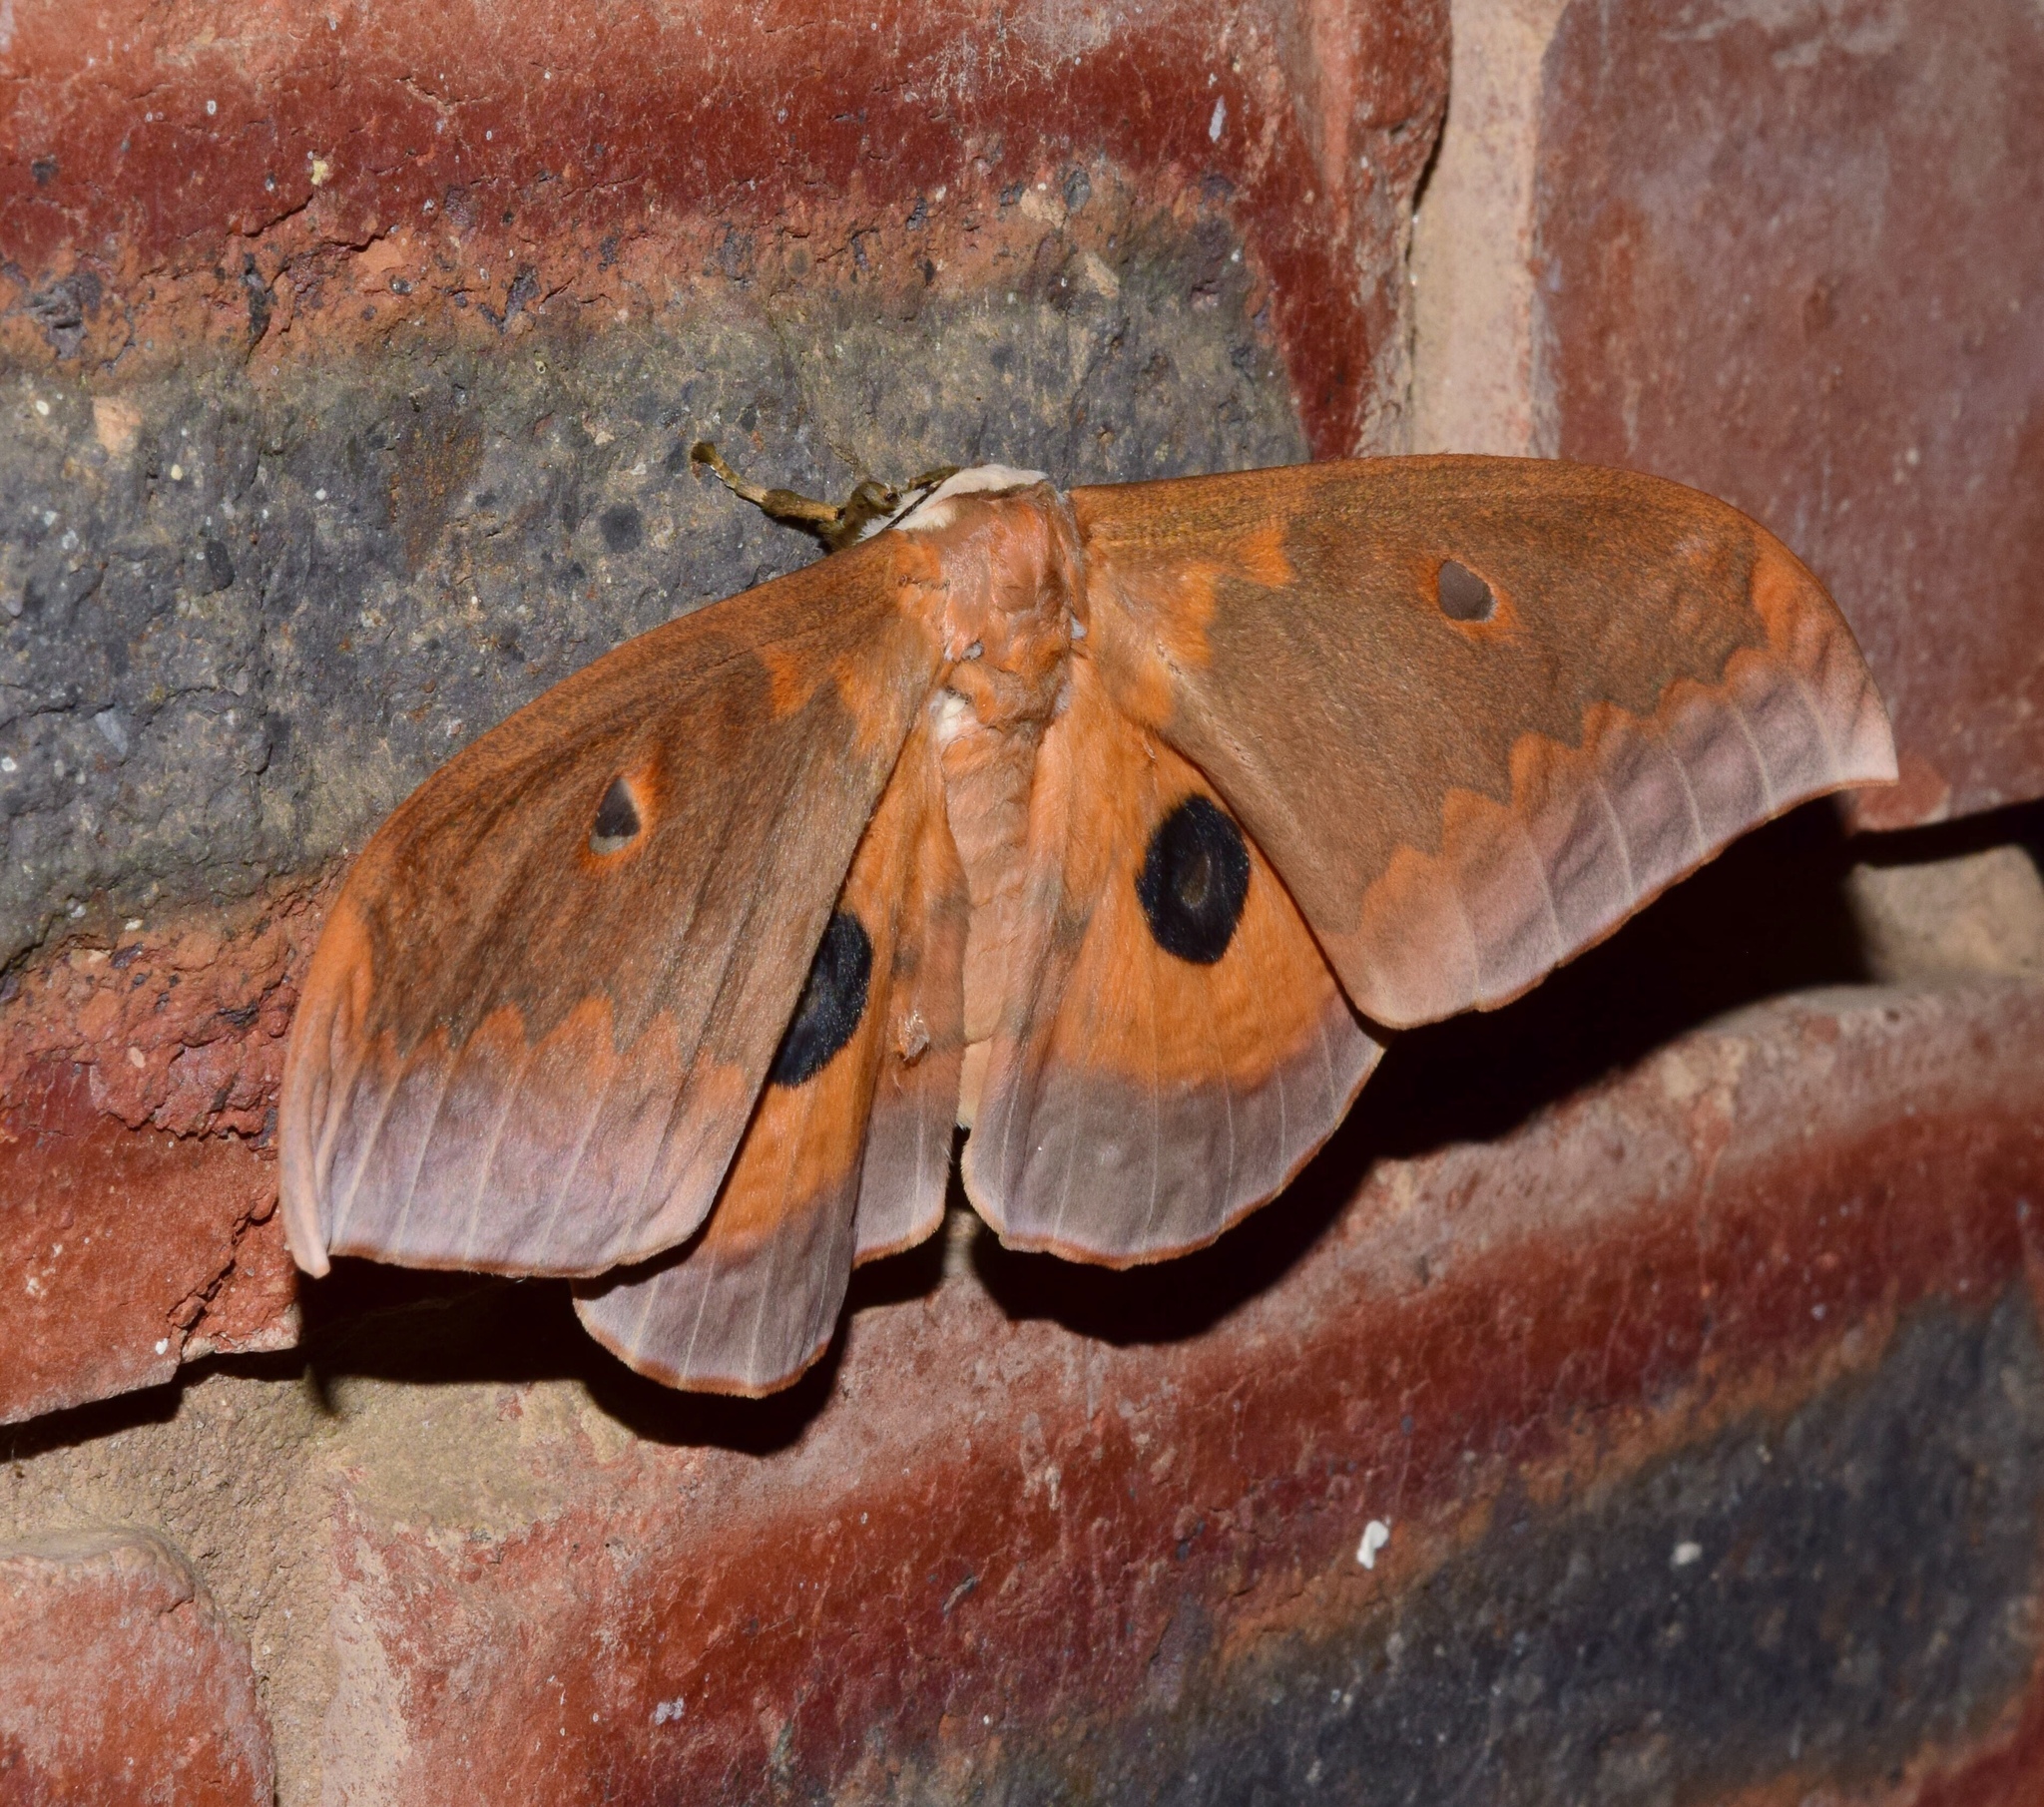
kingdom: Animalia
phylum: Arthropoda
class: Insecta
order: Lepidoptera
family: Saturniidae
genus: Pseudobunaea
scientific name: Pseudobunaea tyrrhena
